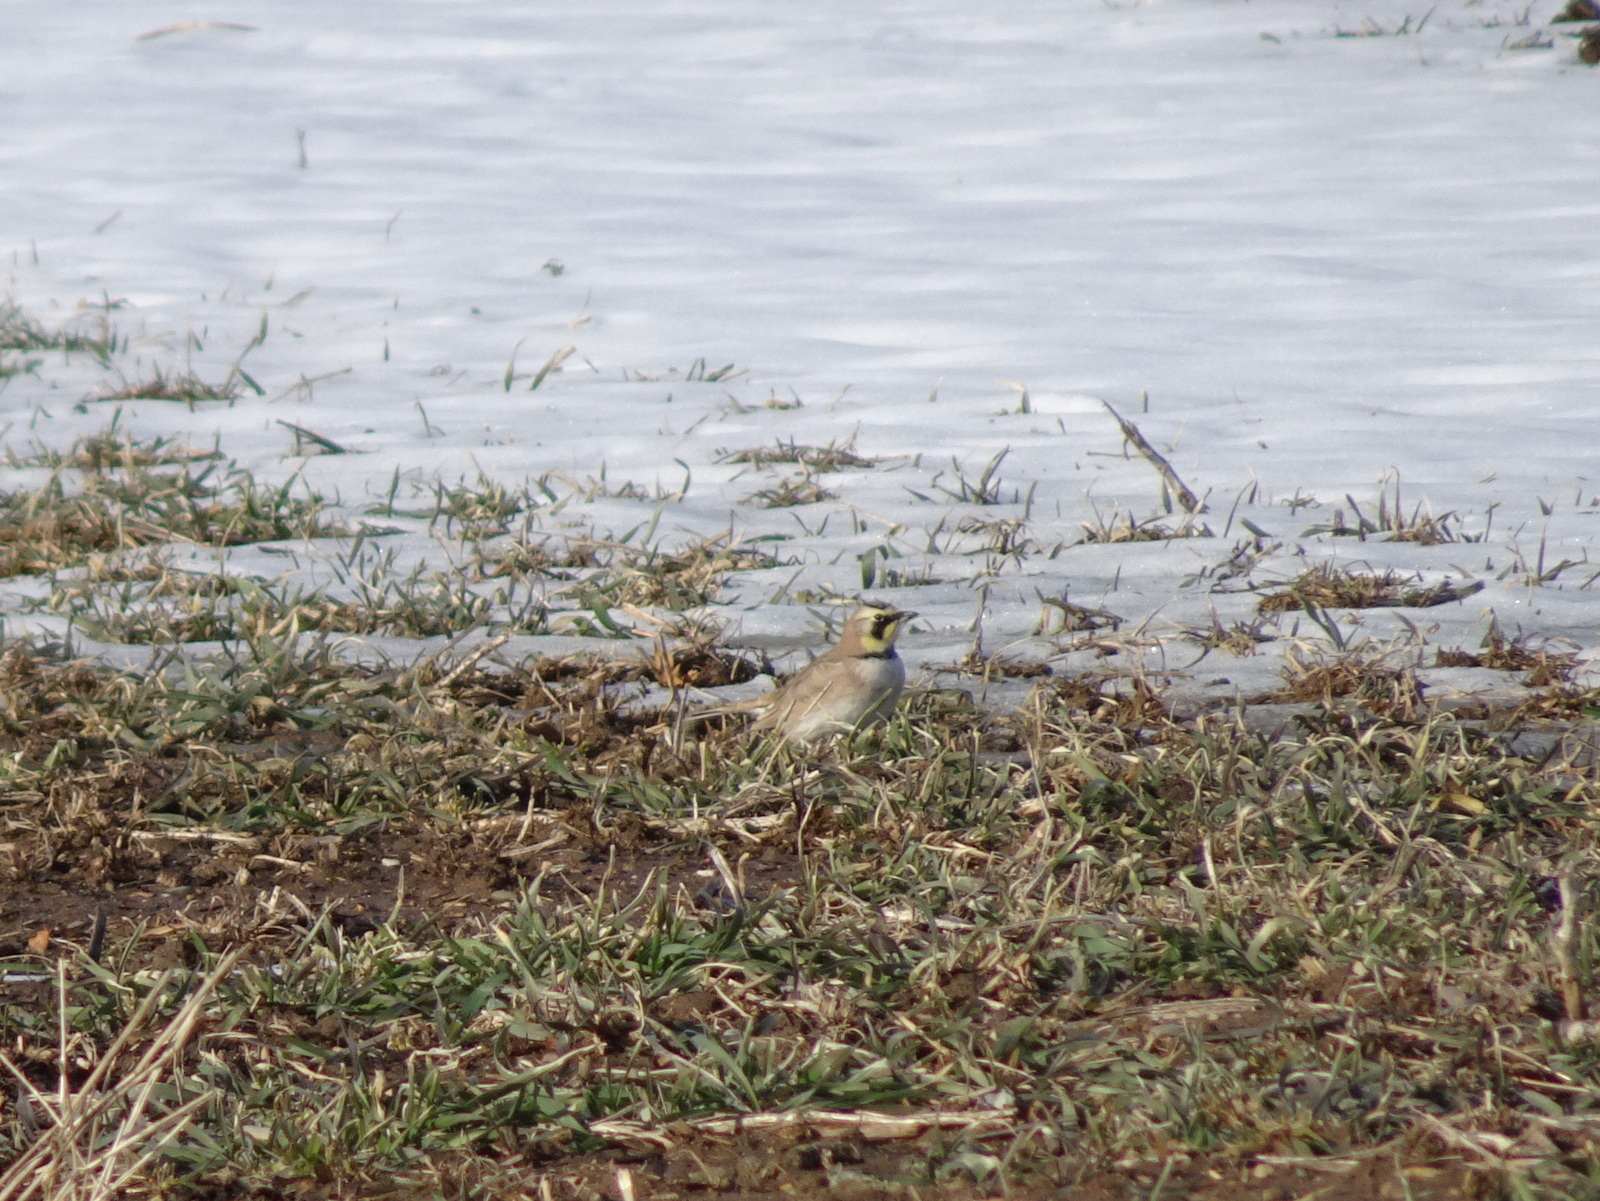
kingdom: Animalia
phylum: Chordata
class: Aves
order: Passeriformes
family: Alaudidae
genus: Eremophila
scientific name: Eremophila alpestris
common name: Horned lark
